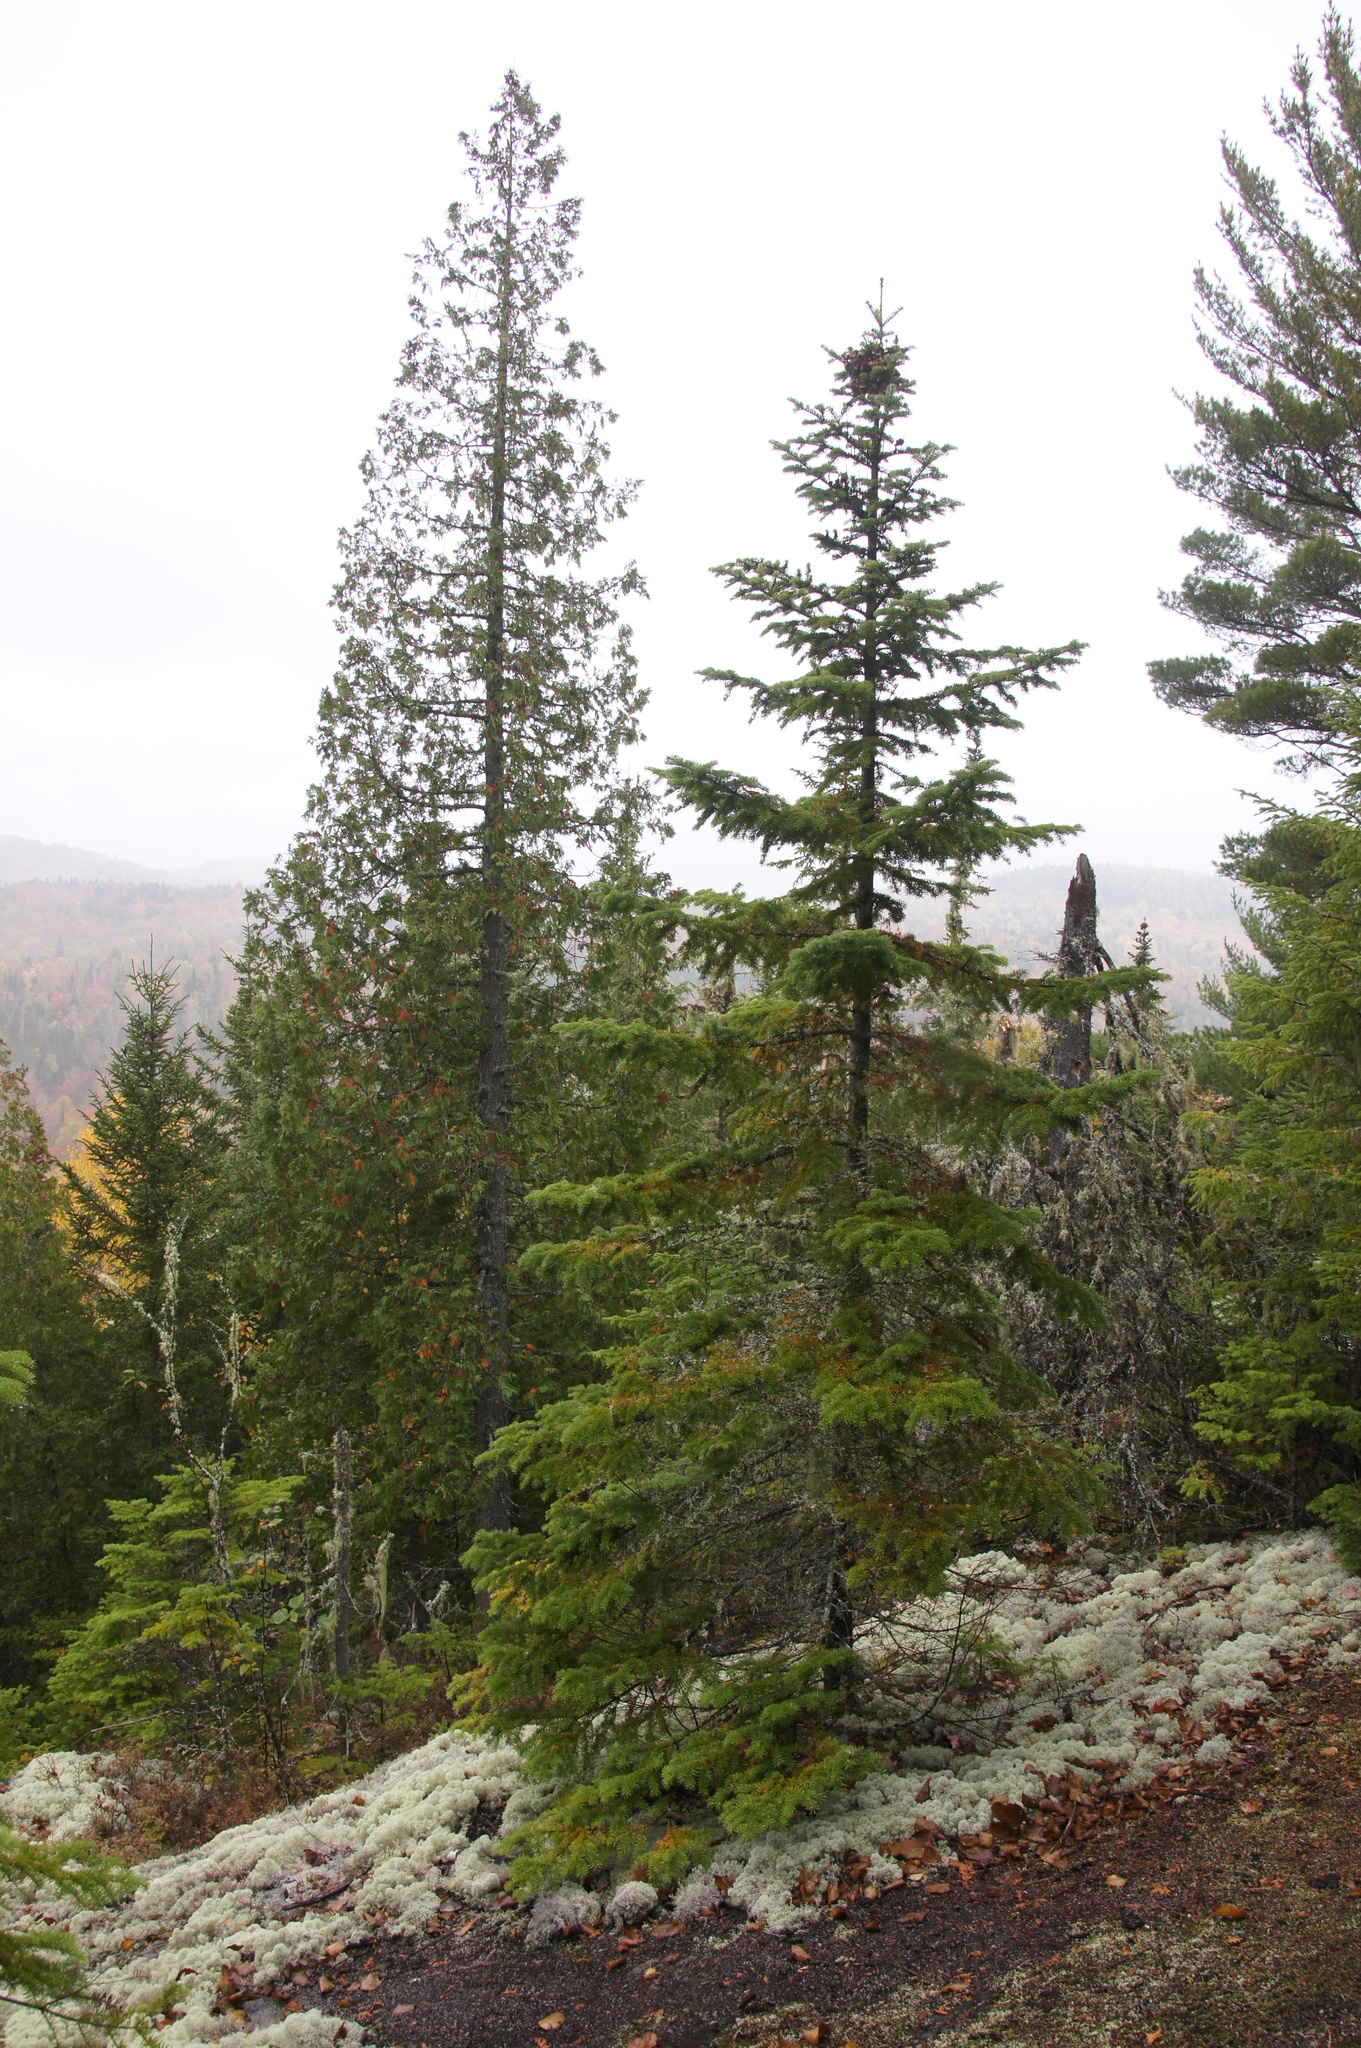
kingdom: Plantae
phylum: Tracheophyta
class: Pinopsida
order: Pinales
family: Pinaceae
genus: Abies
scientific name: Abies balsamea
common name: Balsam fir
